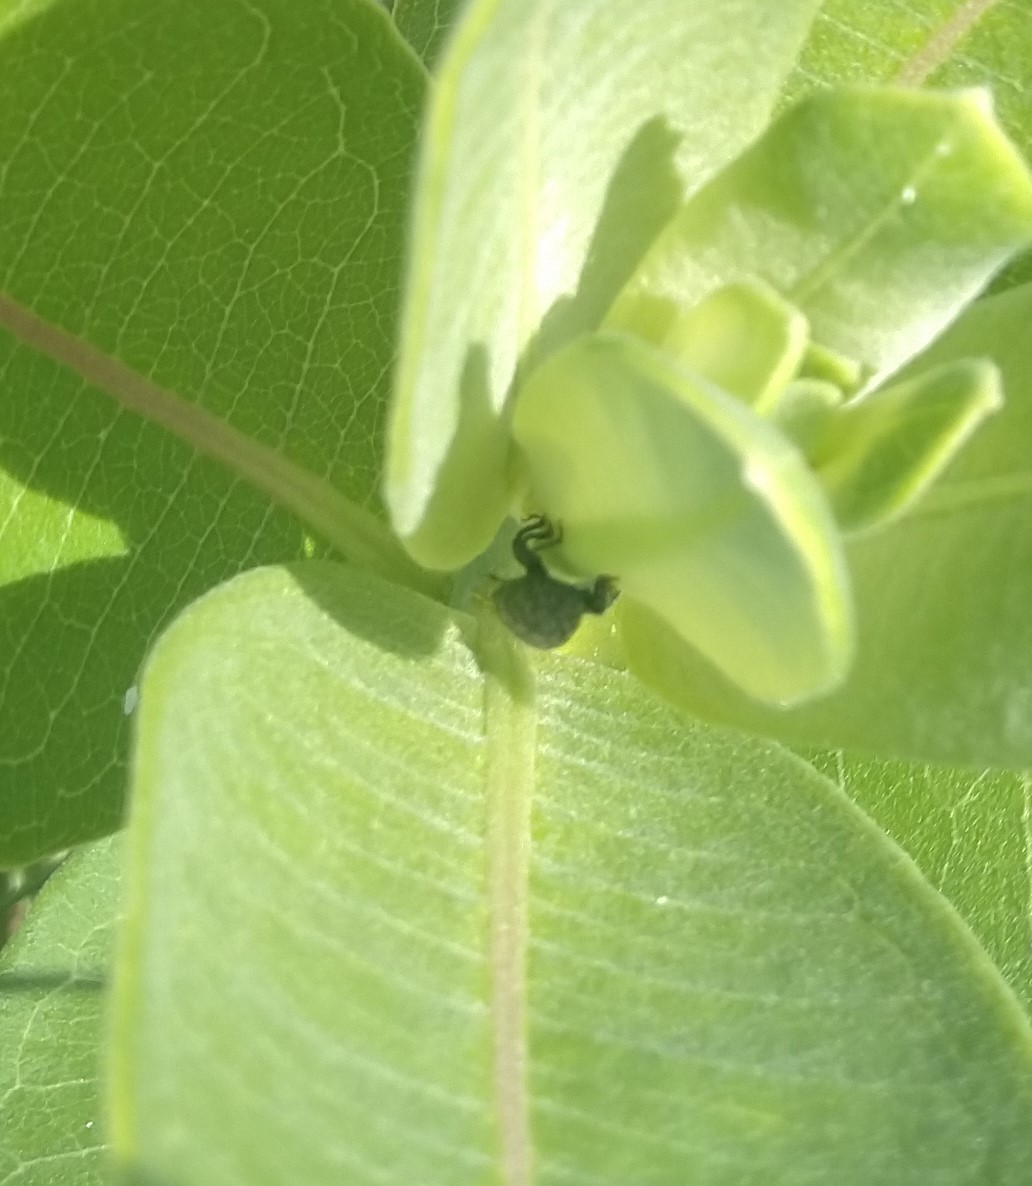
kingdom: Animalia
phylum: Arthropoda
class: Insecta
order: Coleoptera
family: Curculionidae
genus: Rhyssomatus
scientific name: Rhyssomatus lineaticollis
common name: Milkweed stem weevil
